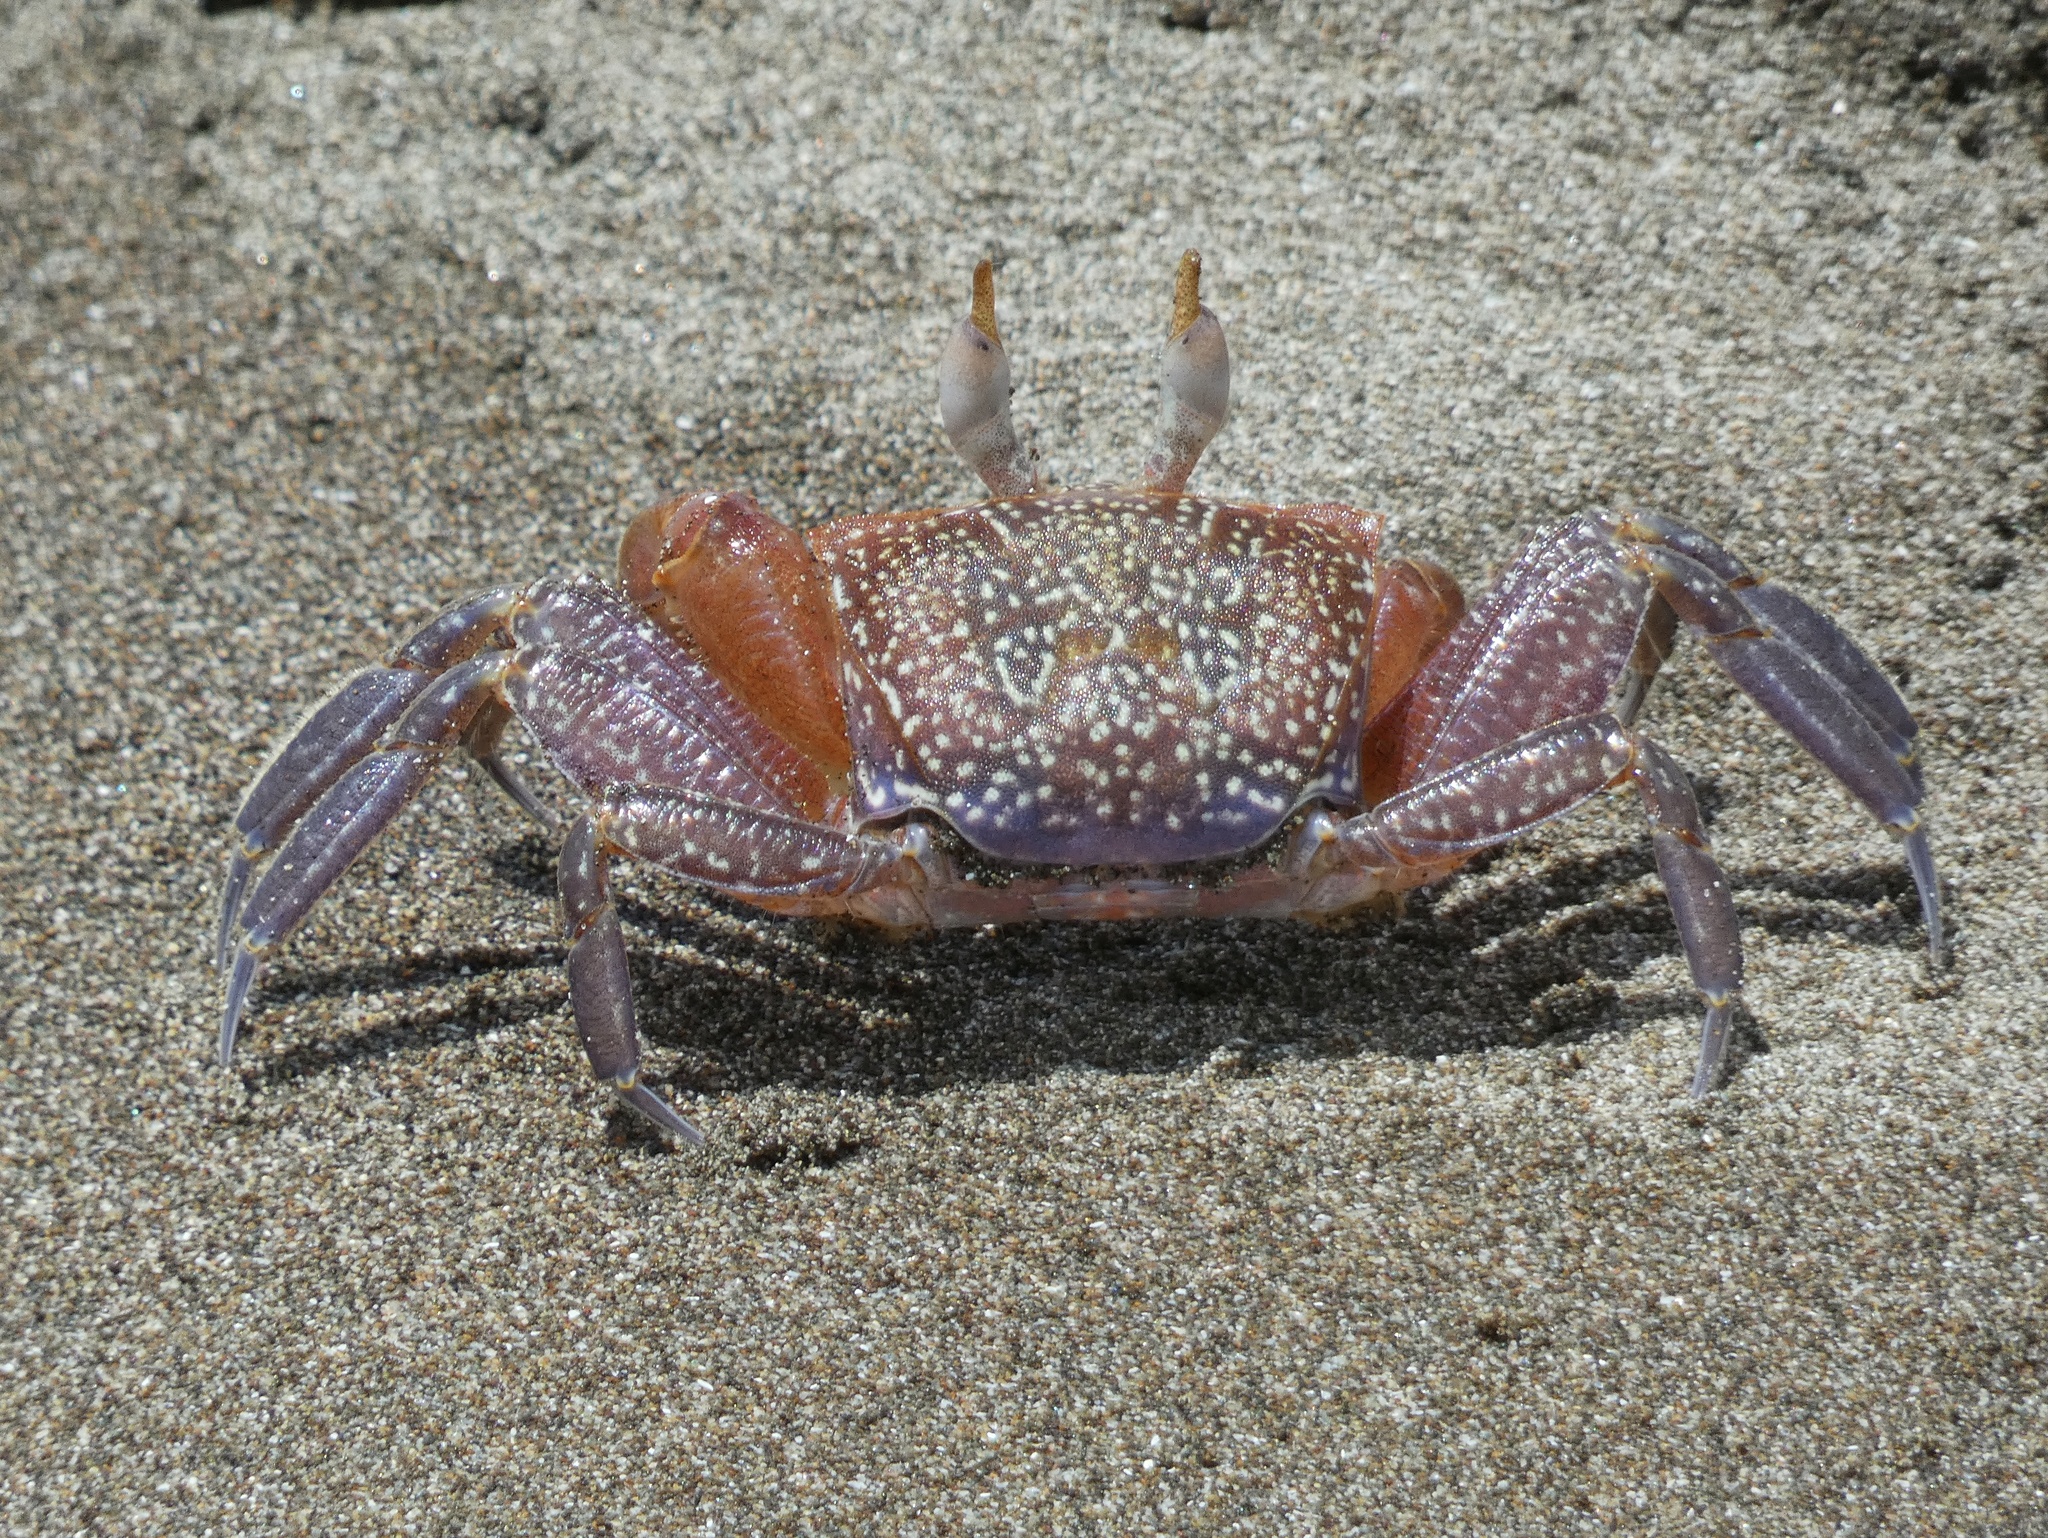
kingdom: Animalia
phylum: Arthropoda
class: Malacostraca
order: Decapoda
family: Ocypodidae
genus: Ocypode
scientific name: Ocypode gaudichaudii
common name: Pacific ghost crab
